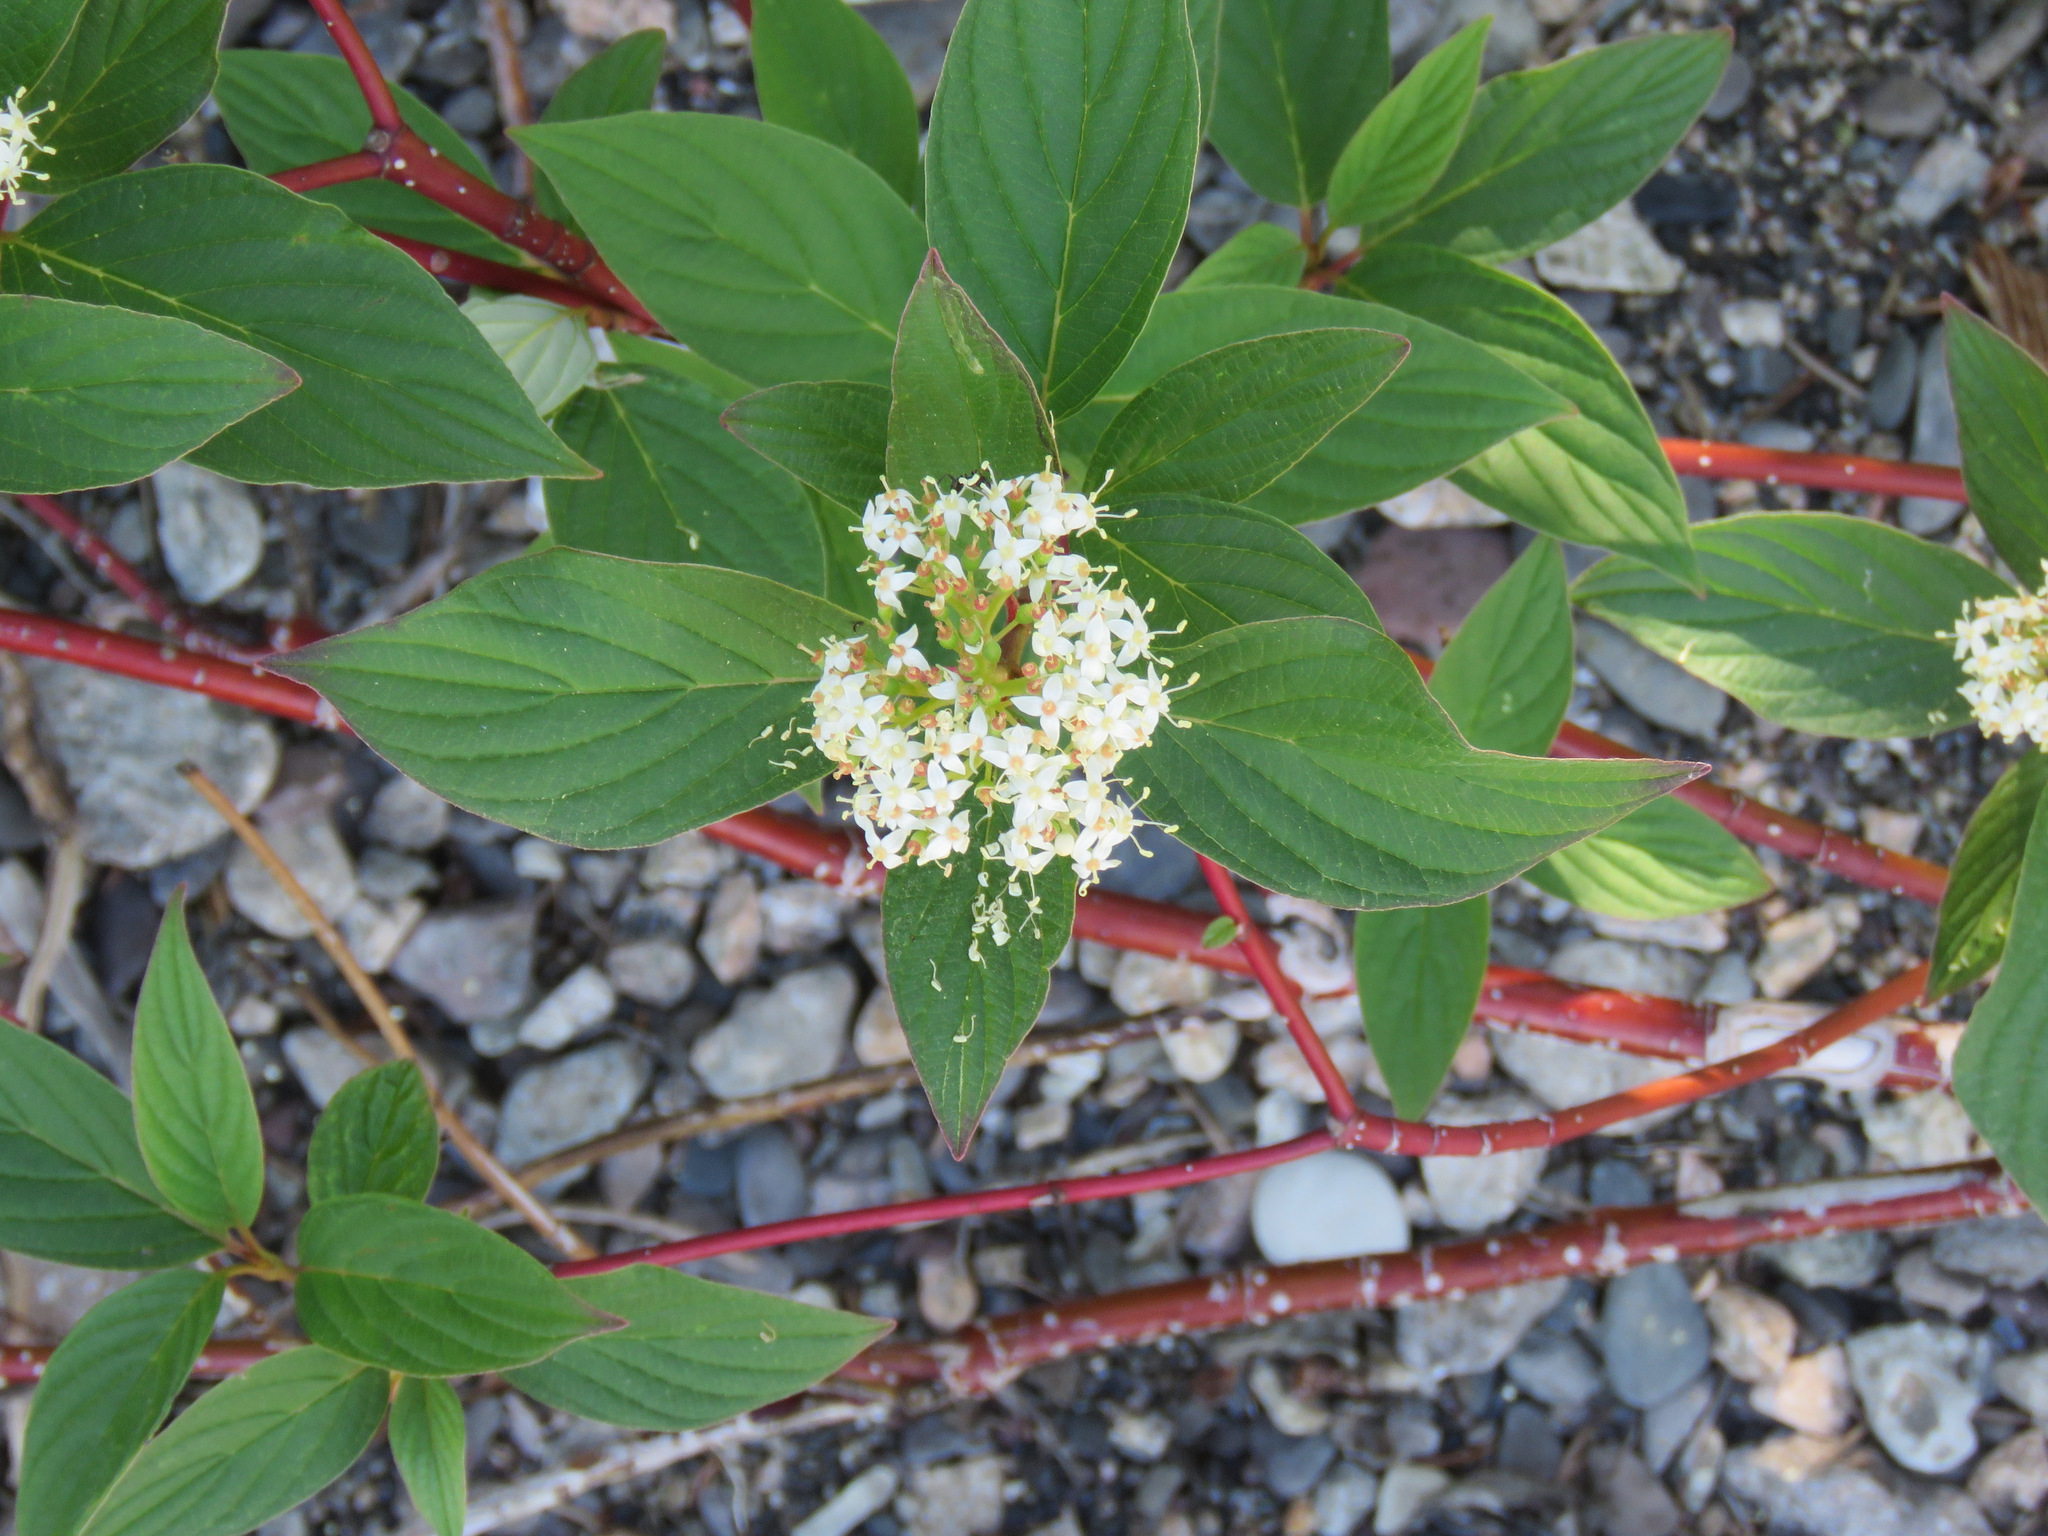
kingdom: Plantae
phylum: Tracheophyta
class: Magnoliopsida
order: Cornales
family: Cornaceae
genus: Cornus
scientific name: Cornus sericea
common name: Red-osier dogwood
